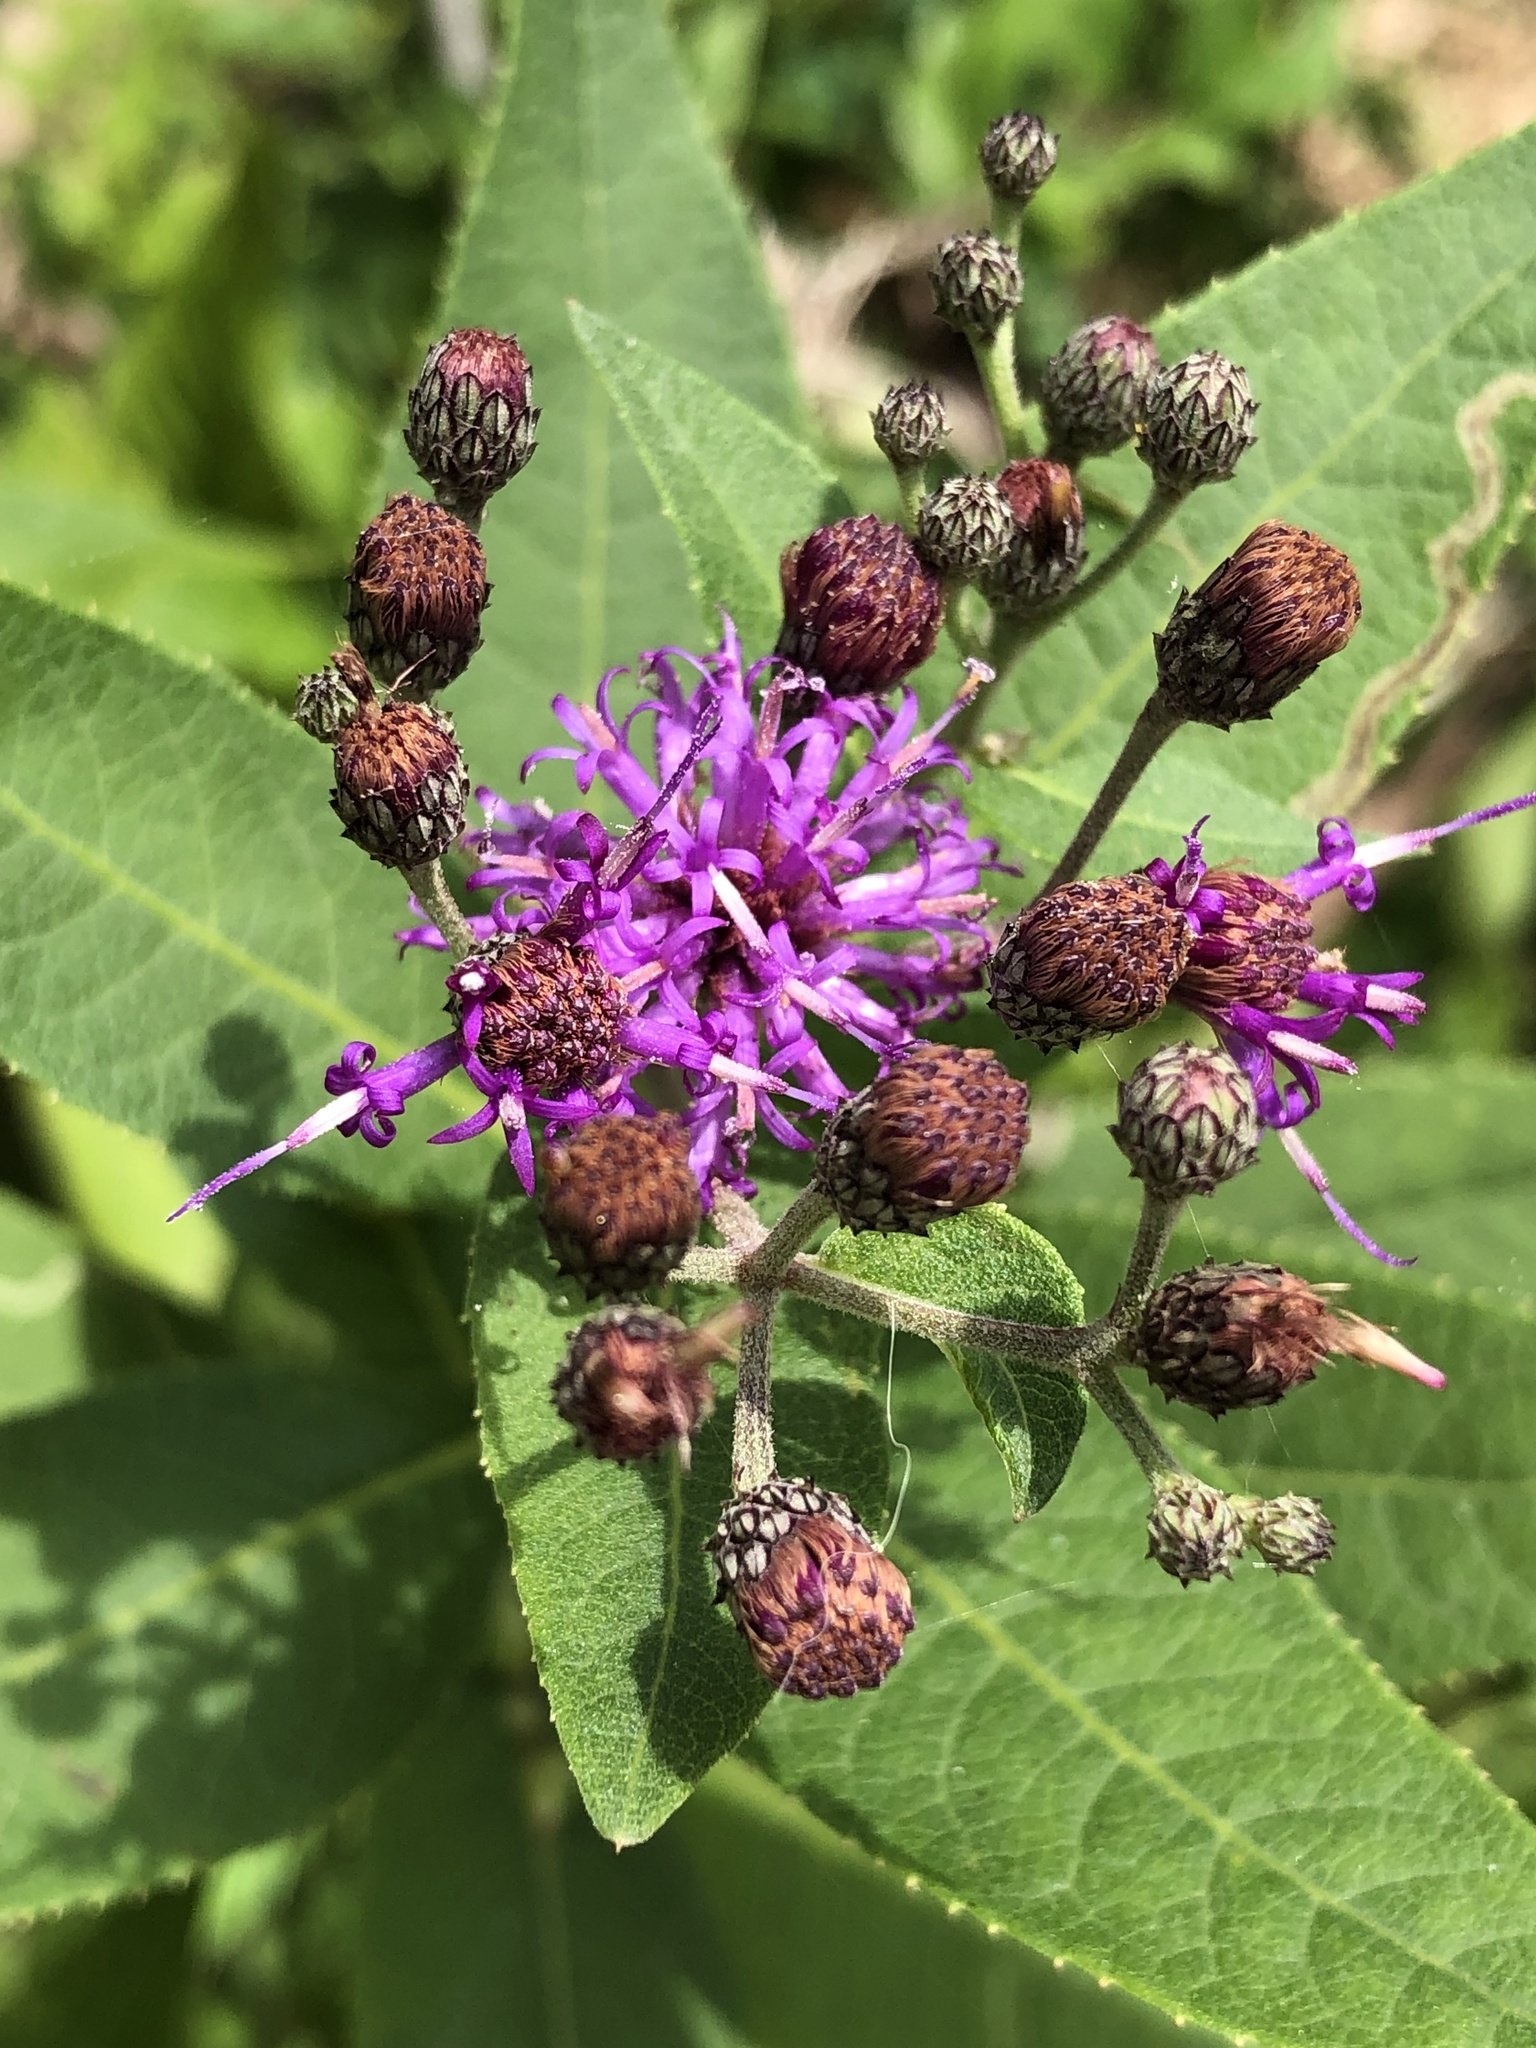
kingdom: Plantae
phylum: Tracheophyta
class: Magnoliopsida
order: Asterales
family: Asteraceae
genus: Vernonia
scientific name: Vernonia baldwinii
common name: Western ironweed
